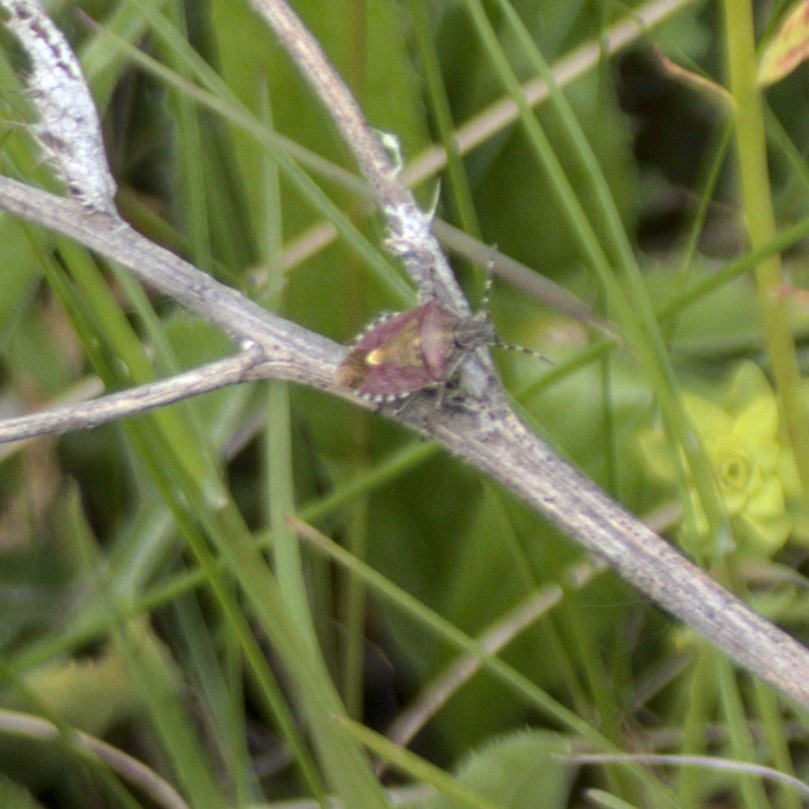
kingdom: Animalia
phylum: Arthropoda
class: Insecta
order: Hemiptera
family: Pentatomidae
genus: Dolycoris
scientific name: Dolycoris baccarum
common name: Sloe bug
